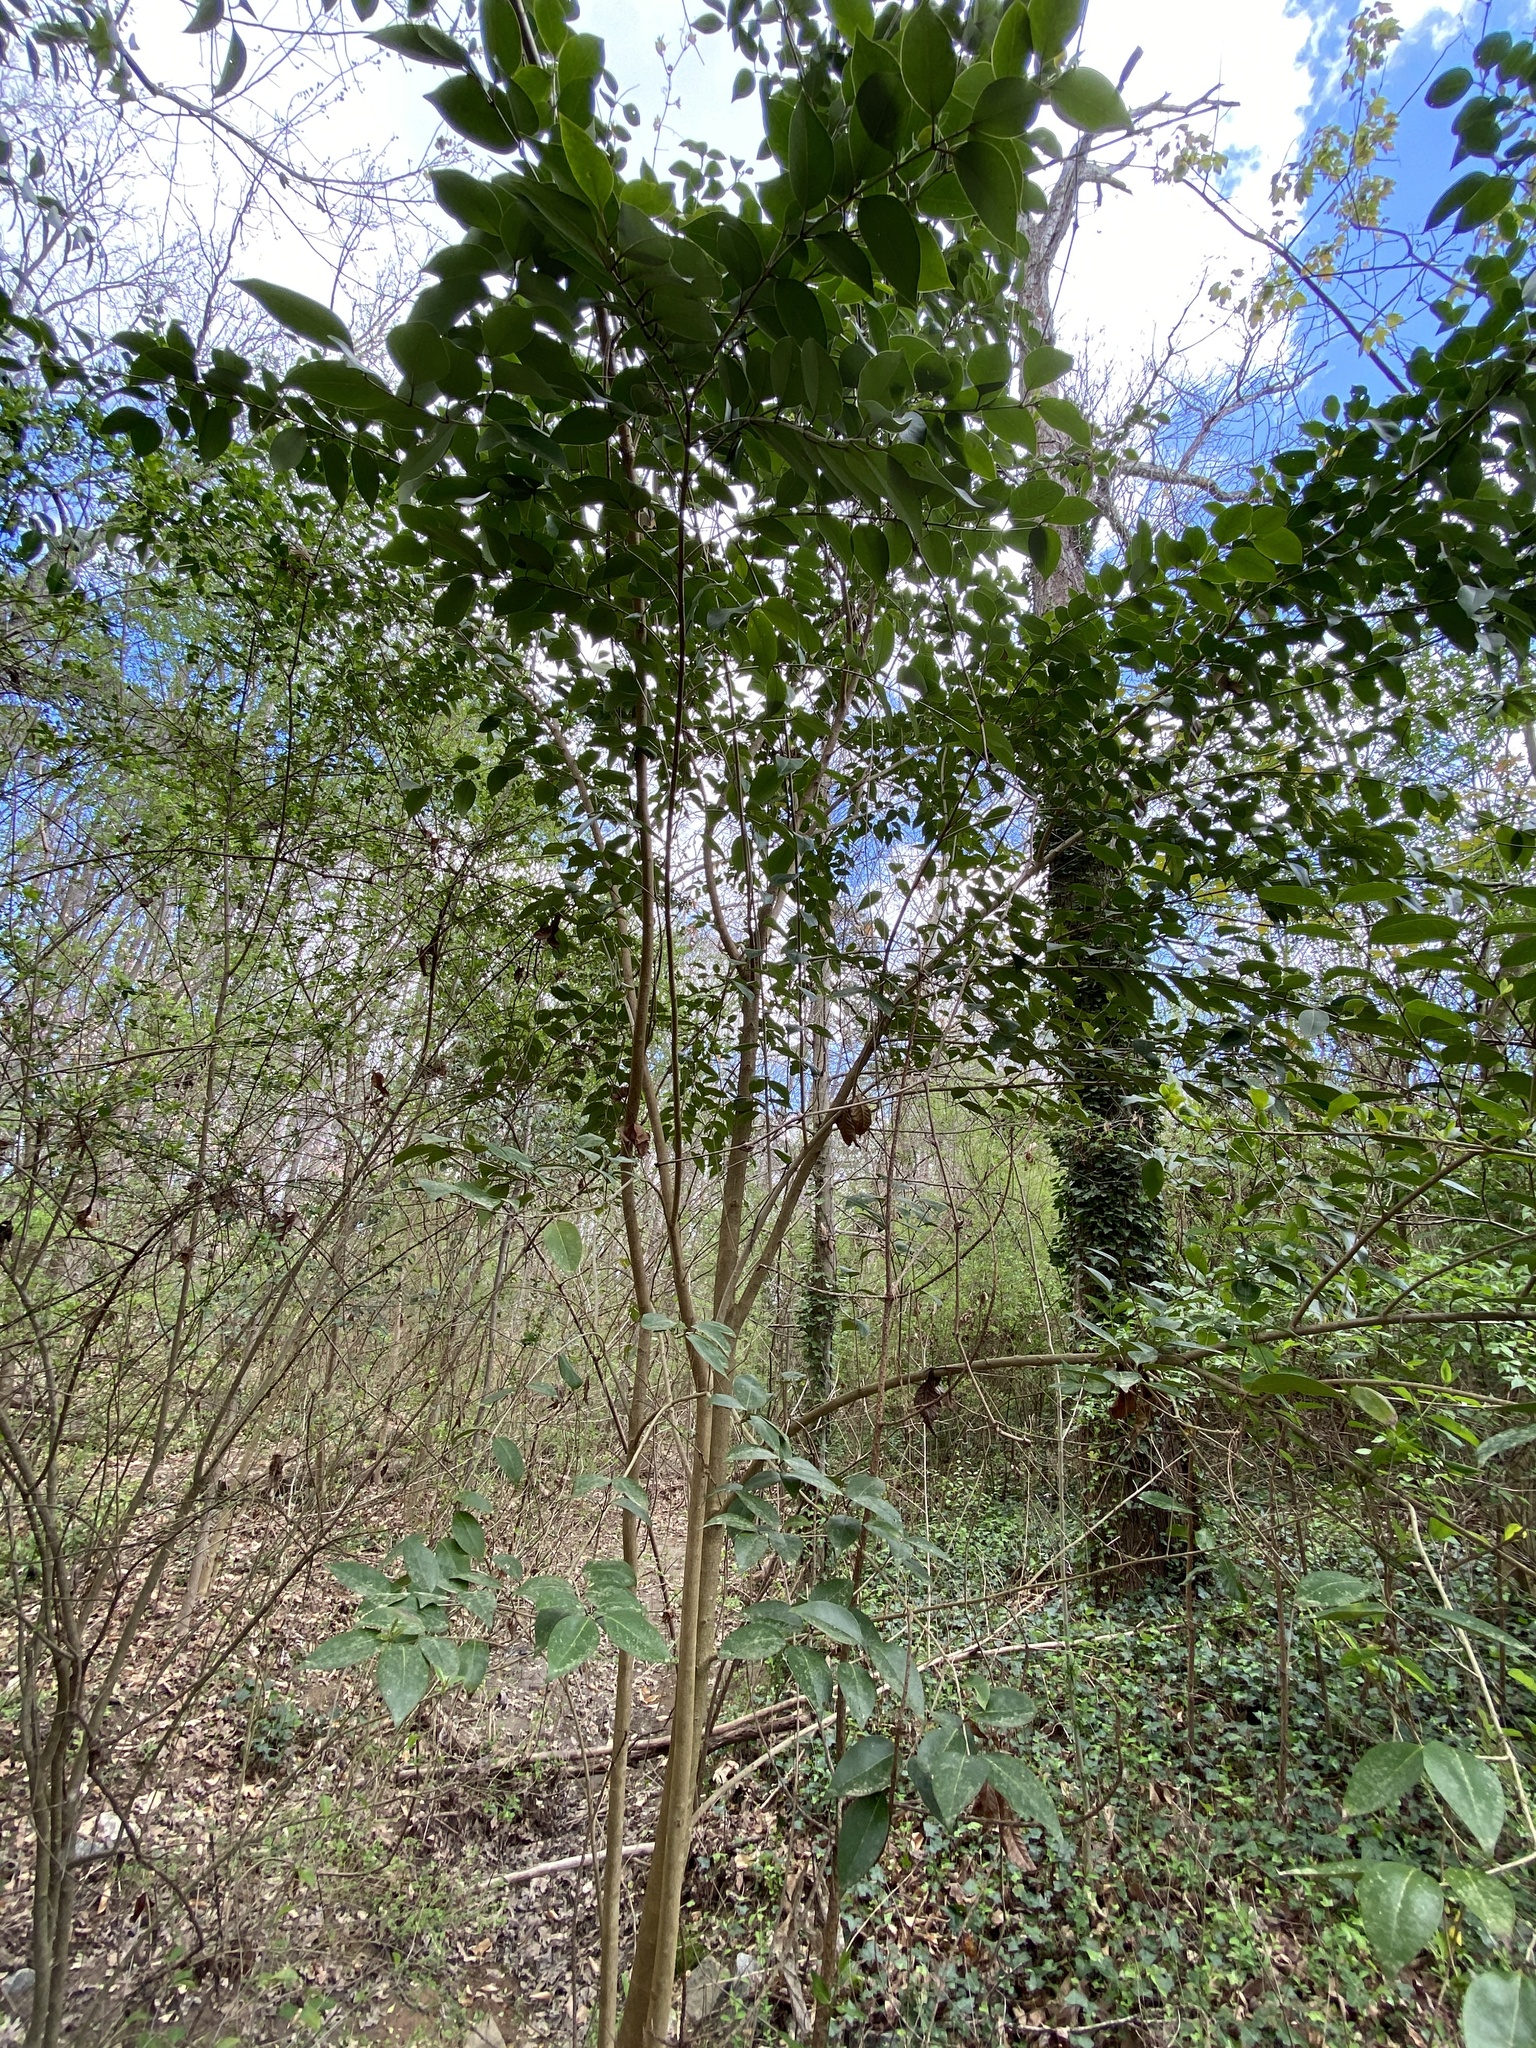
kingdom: Plantae
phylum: Tracheophyta
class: Magnoliopsida
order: Lamiales
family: Oleaceae
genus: Ligustrum
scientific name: Ligustrum lucidum
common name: Glossy privet
